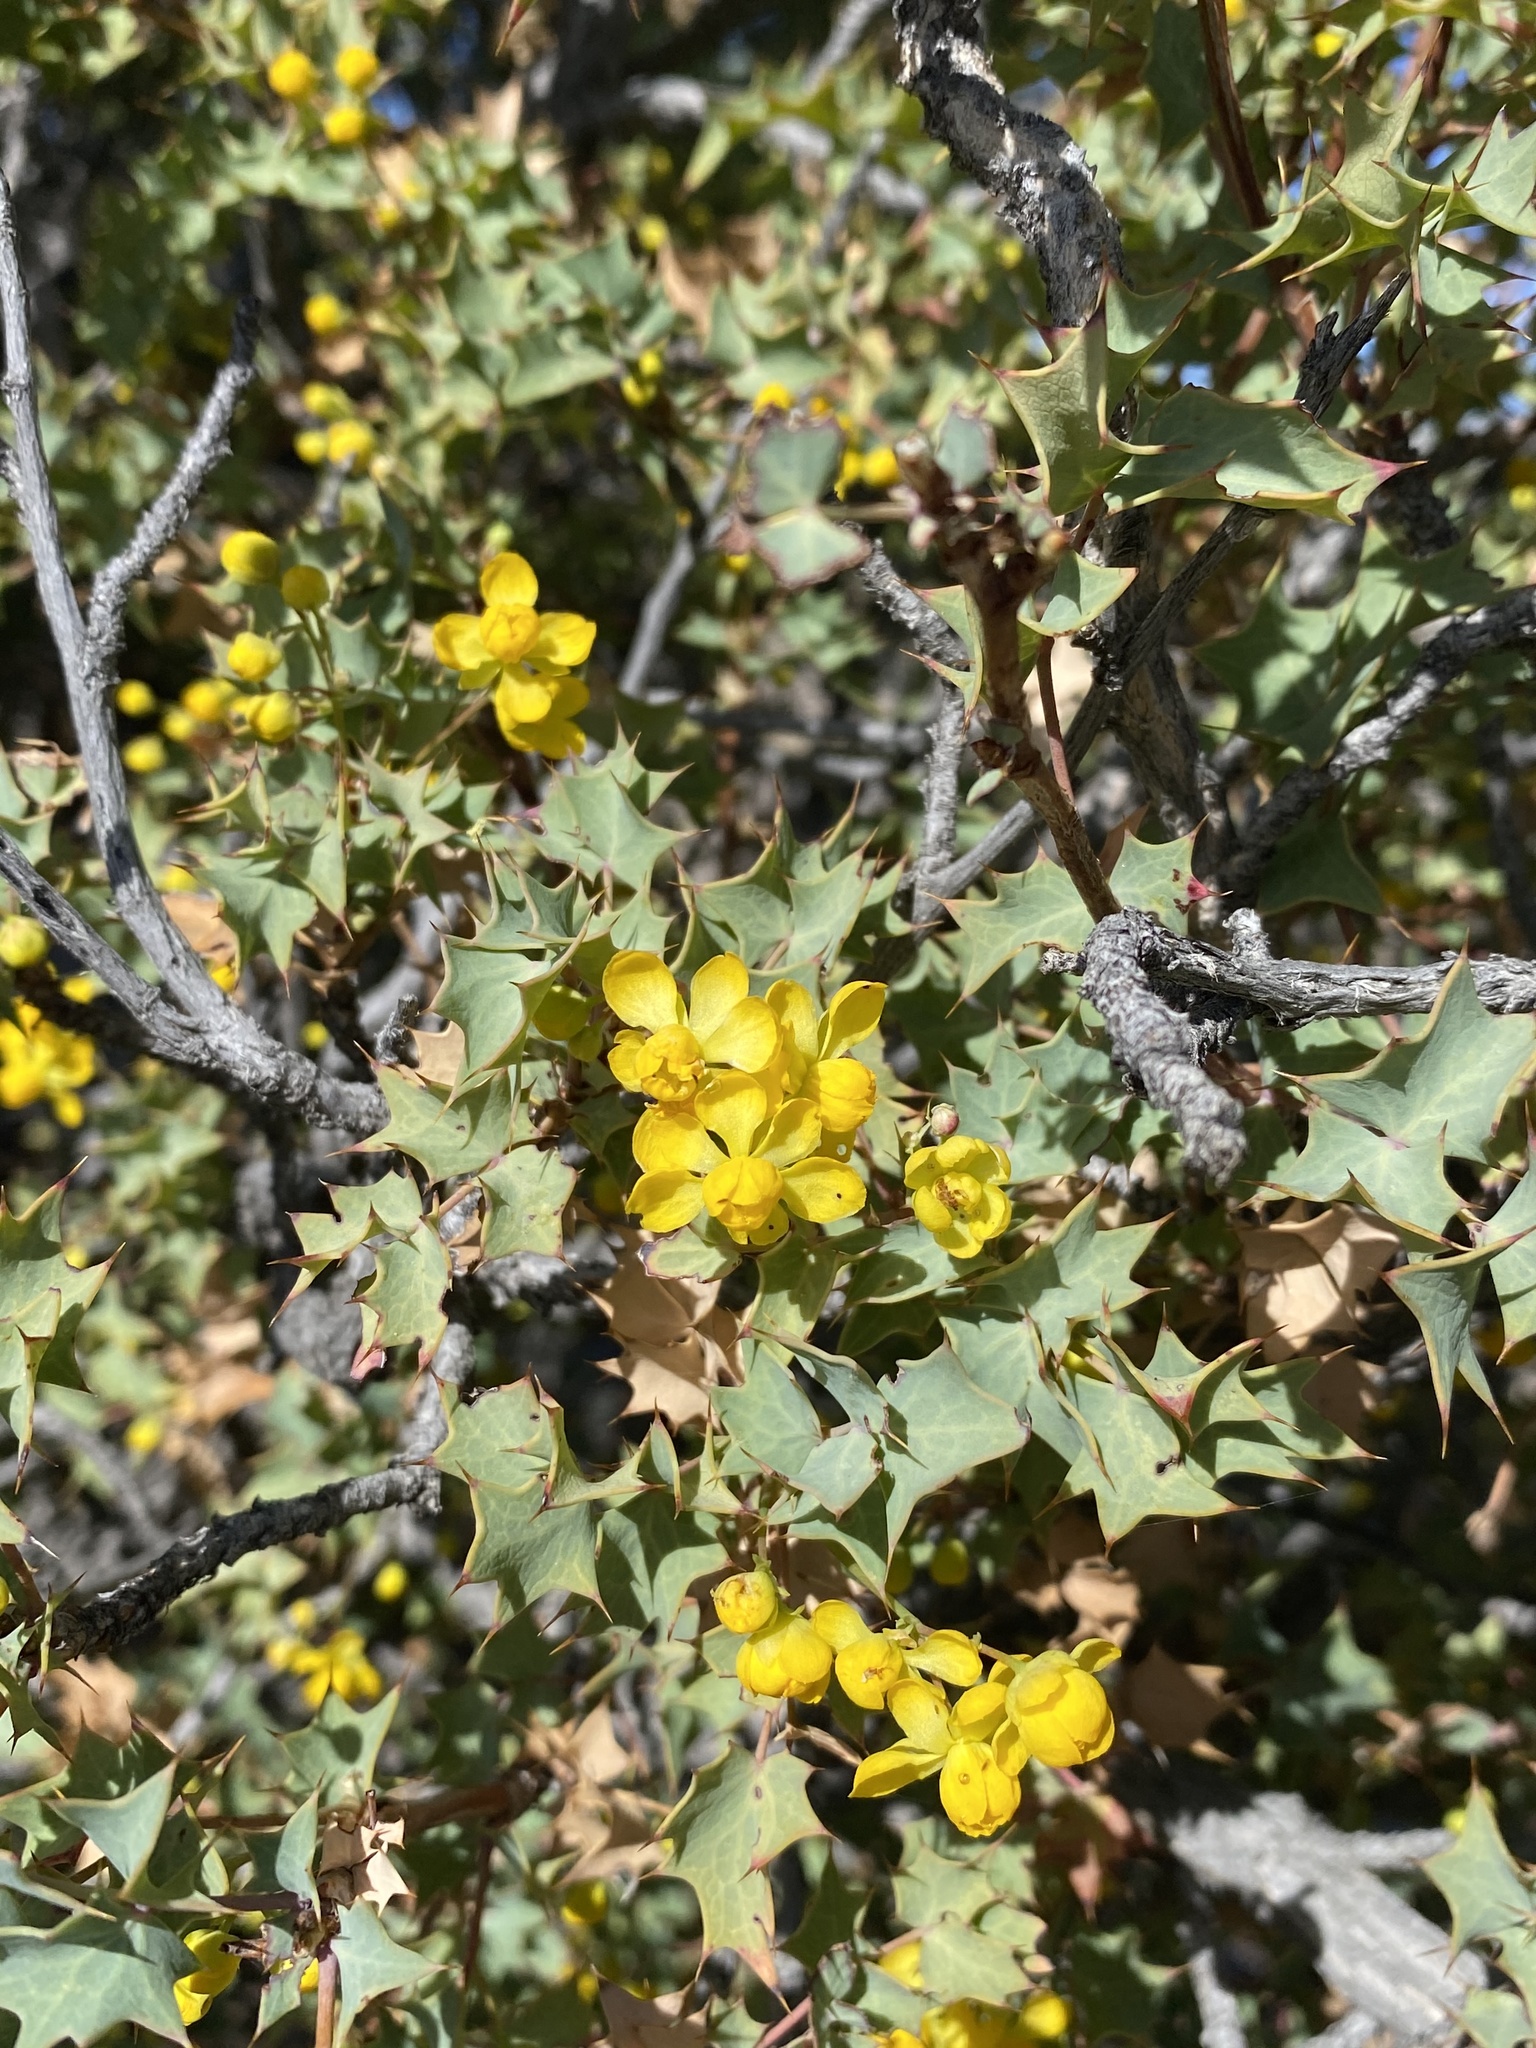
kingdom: Plantae
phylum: Tracheophyta
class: Magnoliopsida
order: Ranunculales
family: Berberidaceae
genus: Alloberberis
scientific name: Alloberberis fremontii
